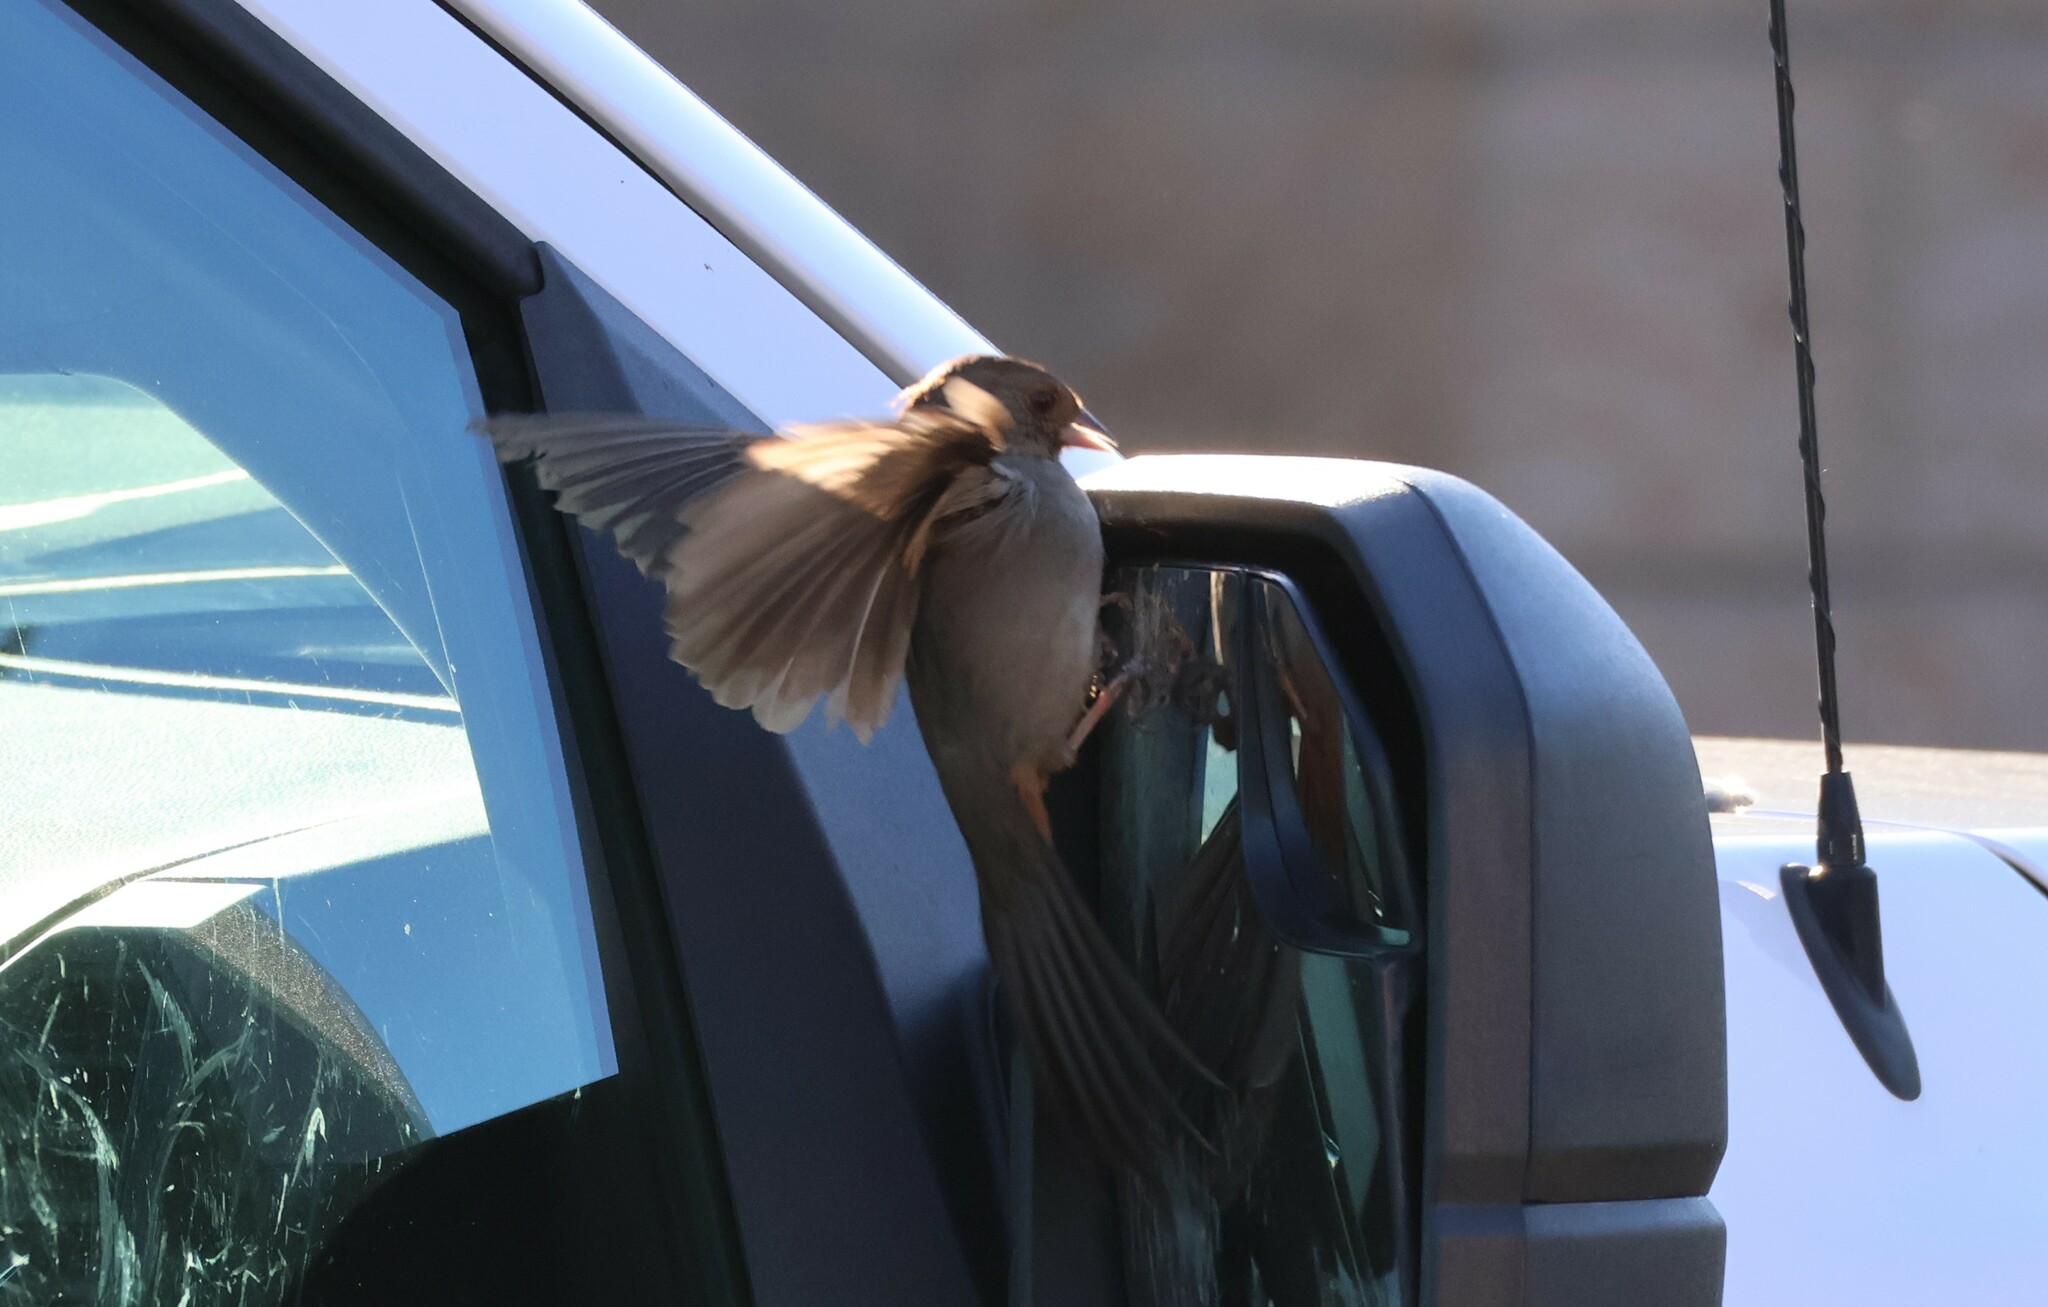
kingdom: Animalia
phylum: Chordata
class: Aves
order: Passeriformes
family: Passerellidae
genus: Melozone
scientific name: Melozone crissalis
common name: California towhee
